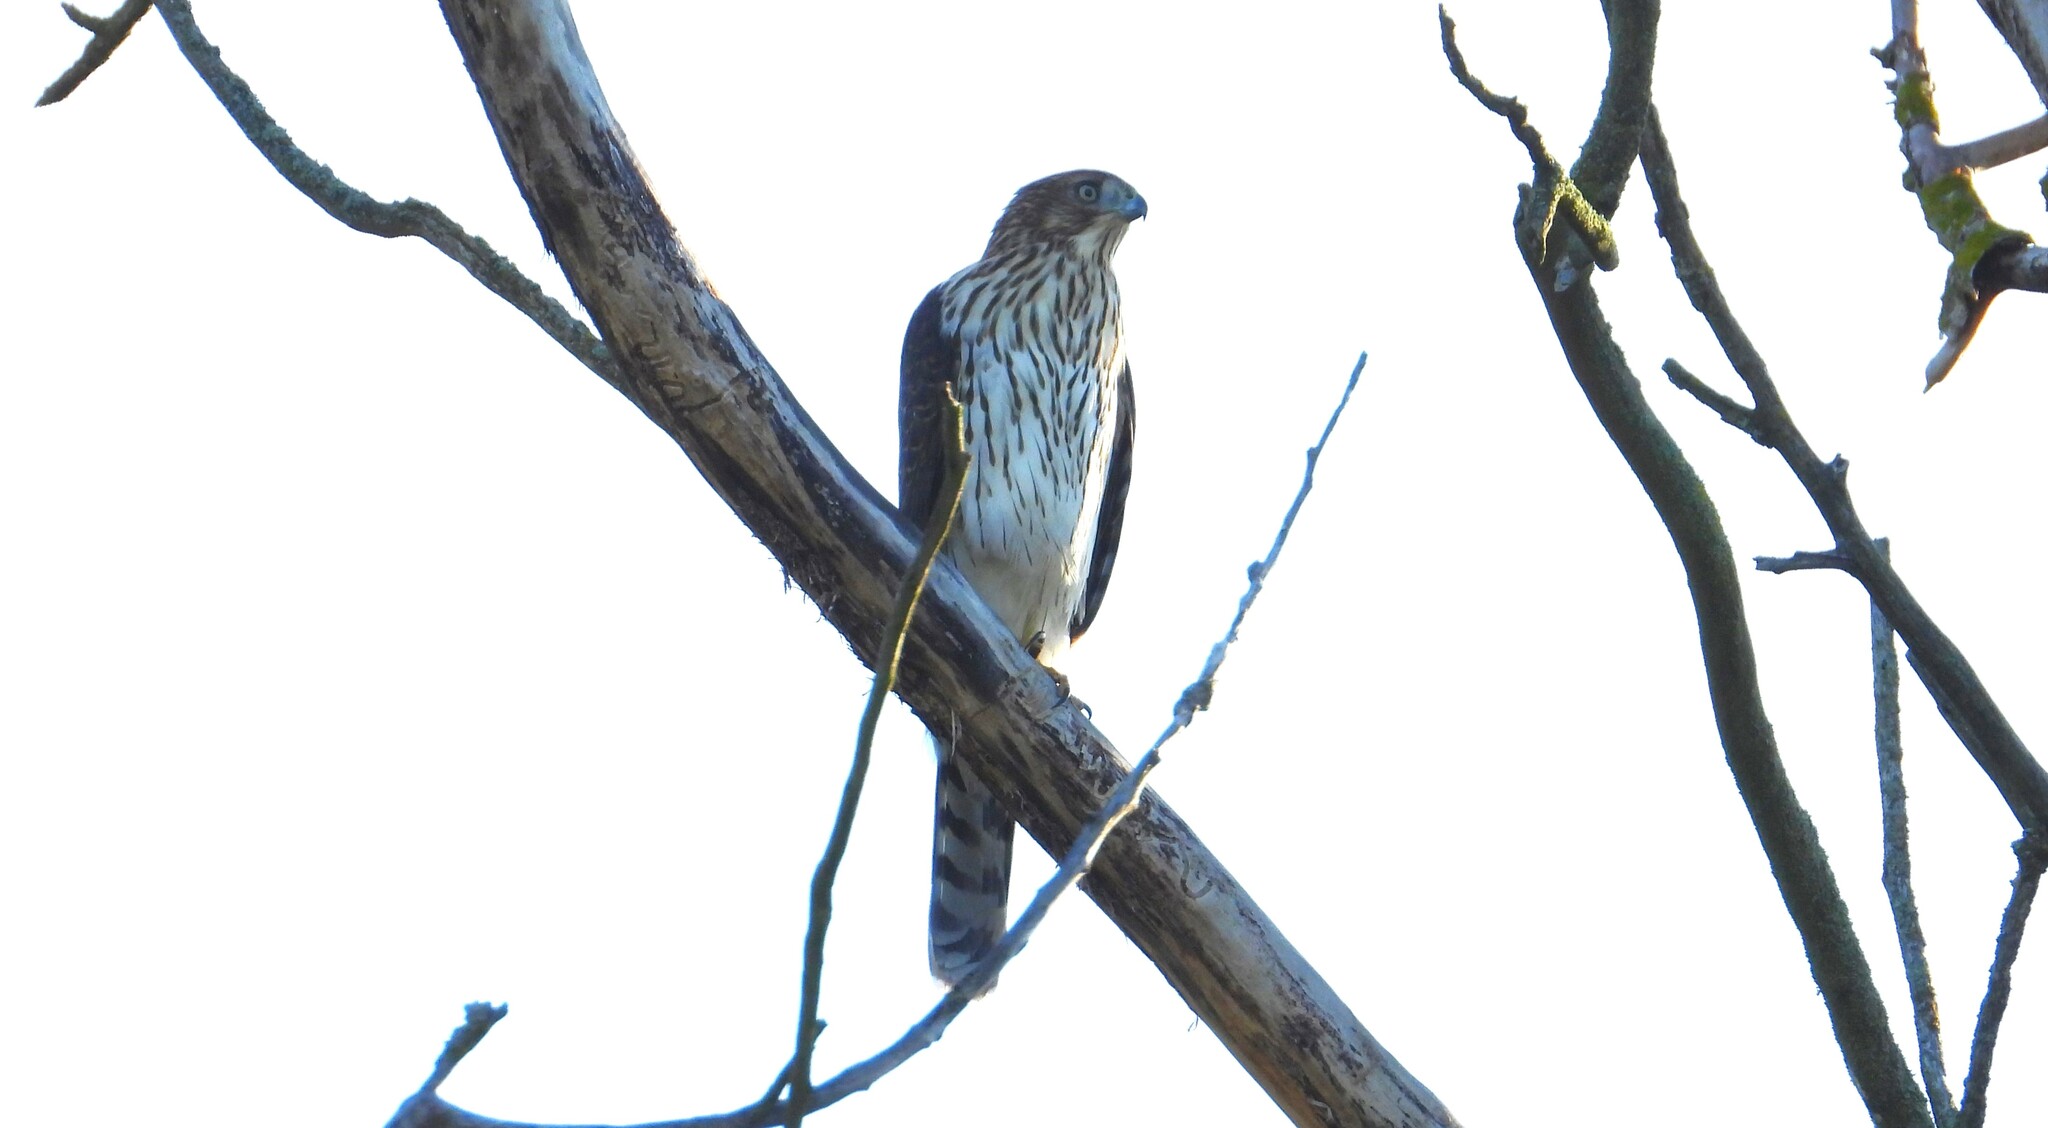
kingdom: Animalia
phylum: Chordata
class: Aves
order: Accipitriformes
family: Accipitridae
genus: Accipiter
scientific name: Accipiter cooperii
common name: Cooper's hawk
